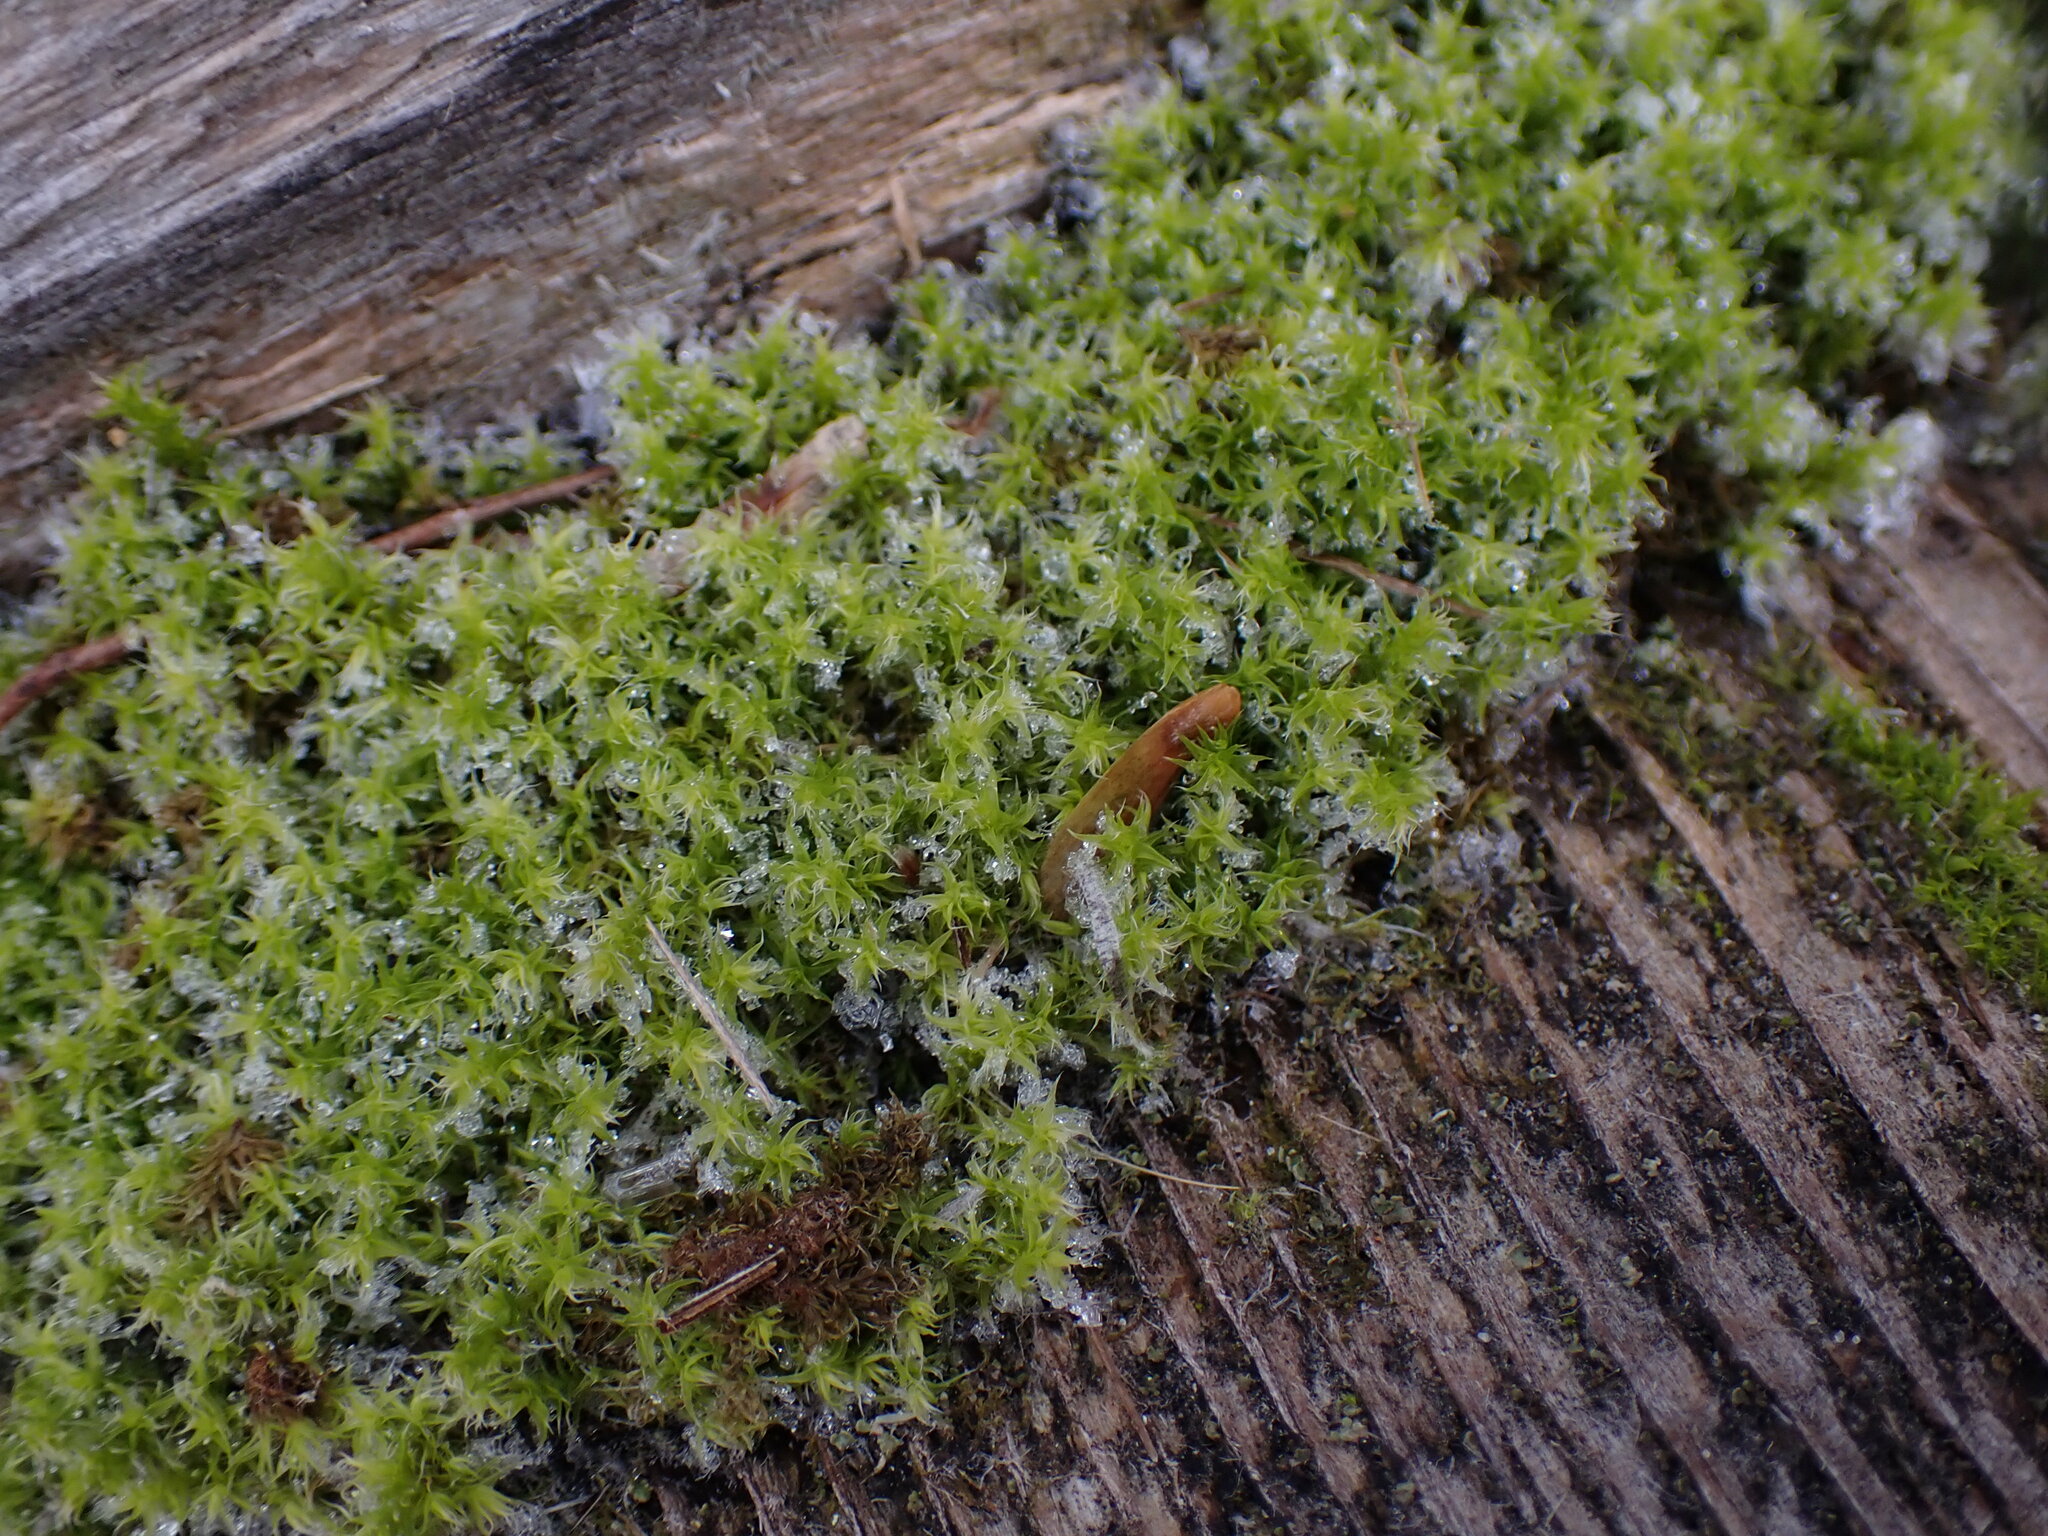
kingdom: Plantae
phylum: Bryophyta
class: Bryopsida
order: Grimmiales
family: Grimmiaceae
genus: Niphotrichum
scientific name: Niphotrichum elongatum
